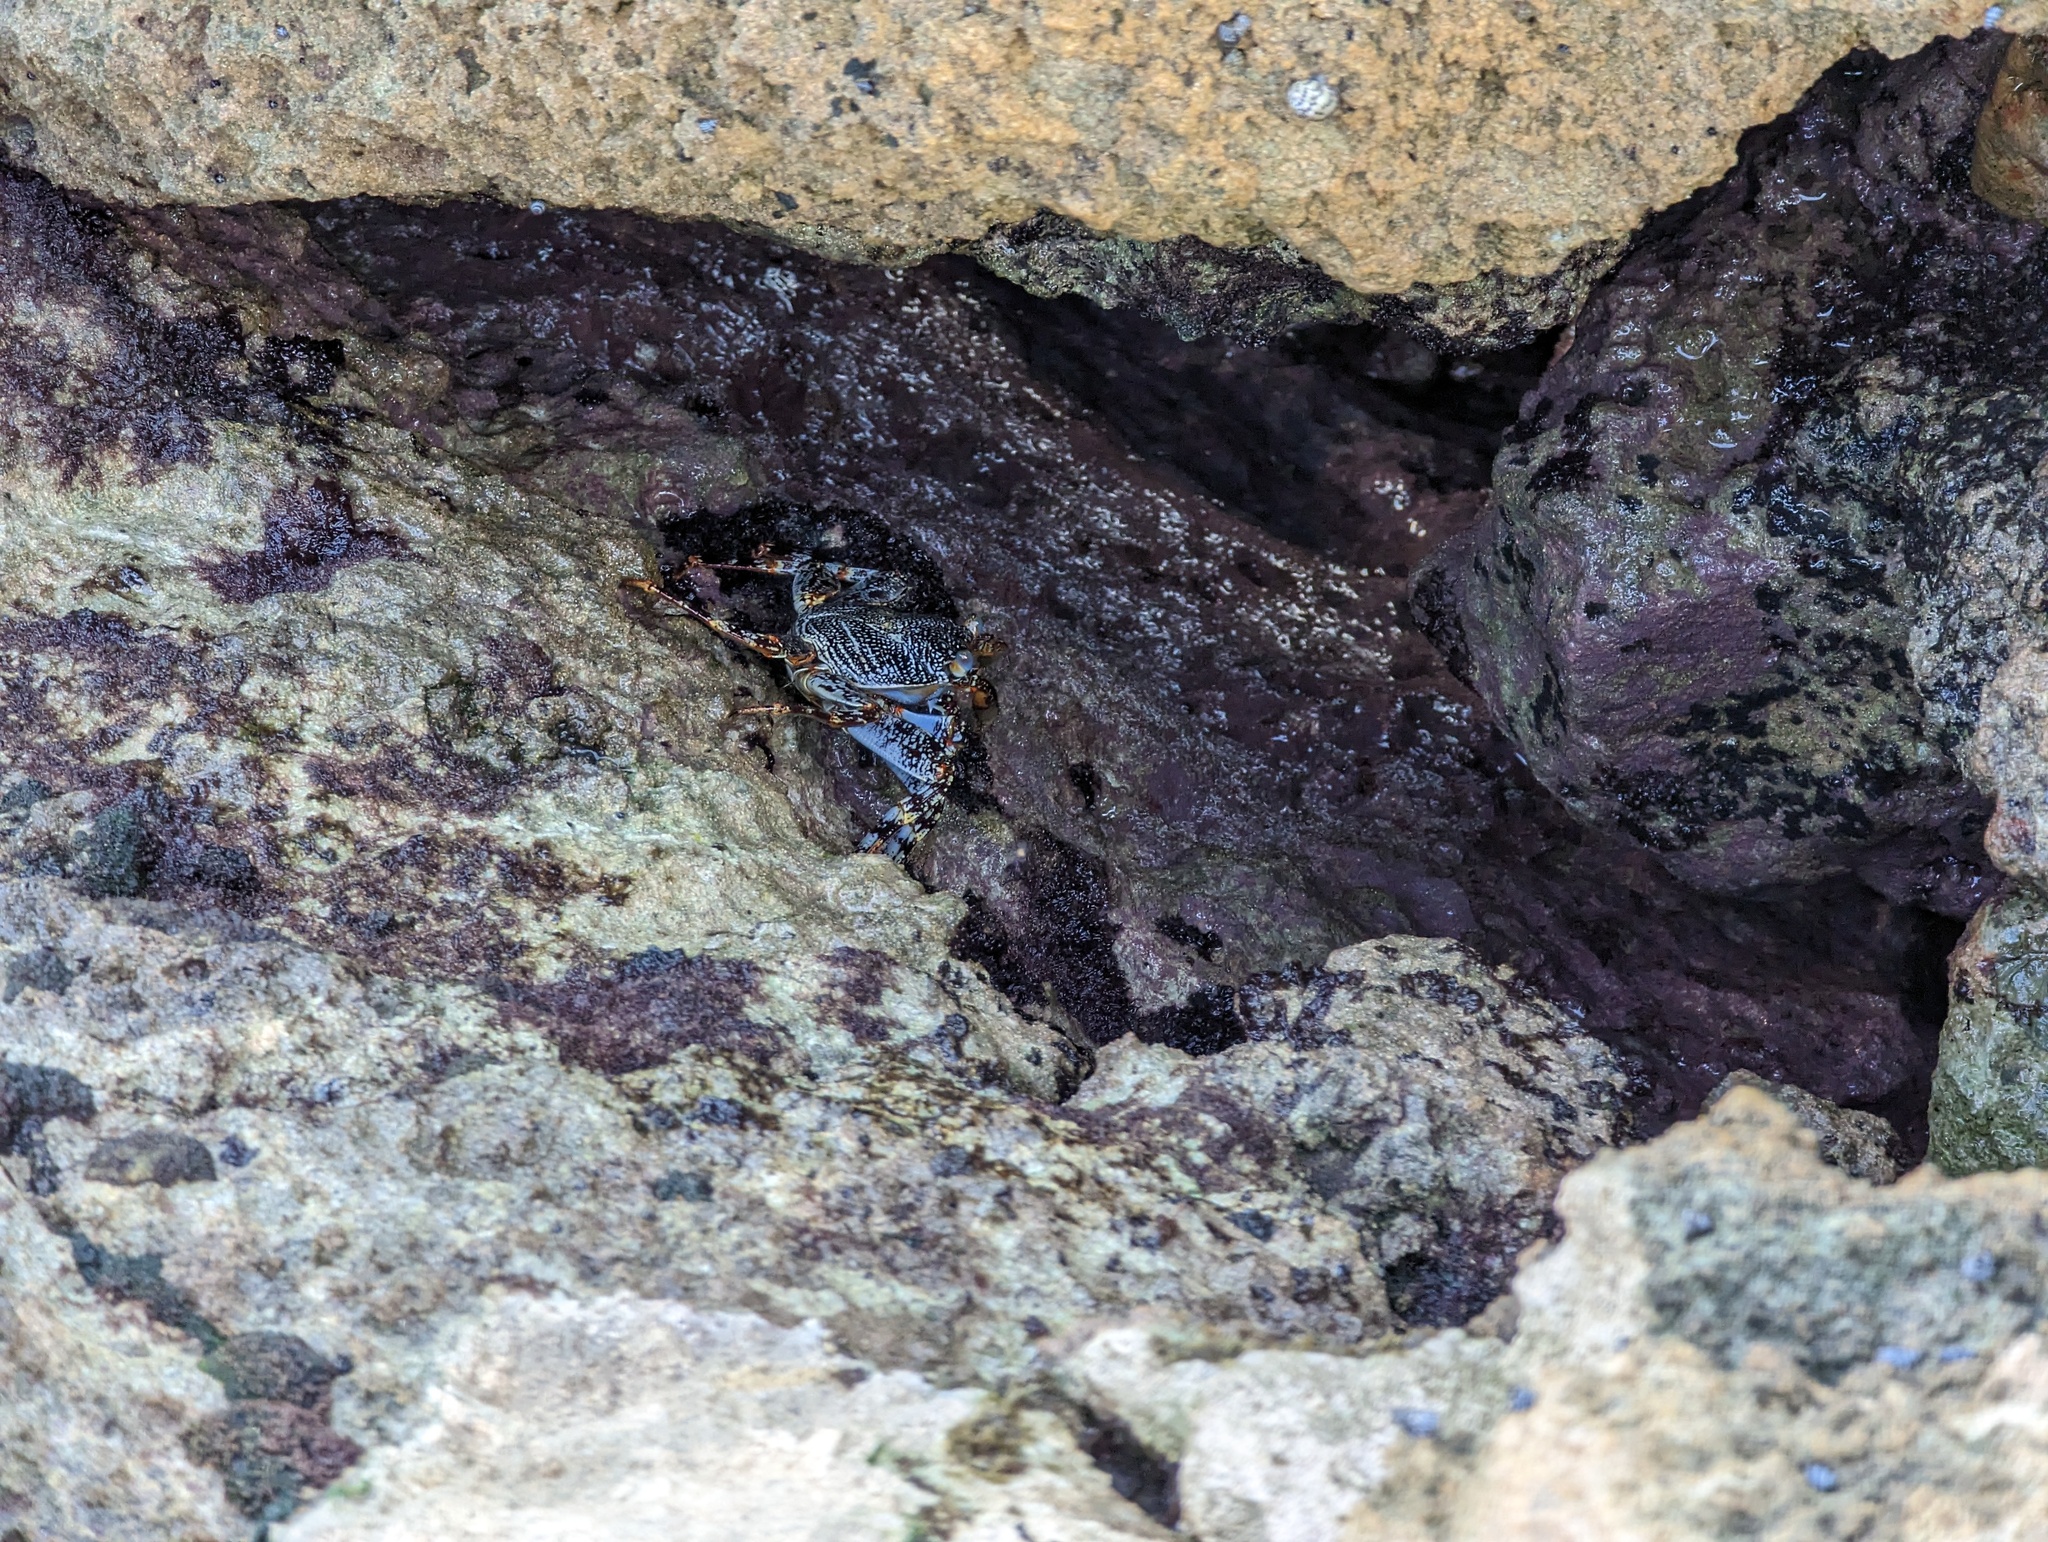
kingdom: Animalia
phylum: Arthropoda
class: Malacostraca
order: Decapoda
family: Grapsidae
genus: Grapsus
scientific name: Grapsus grapsus
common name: Sally lightfoot
